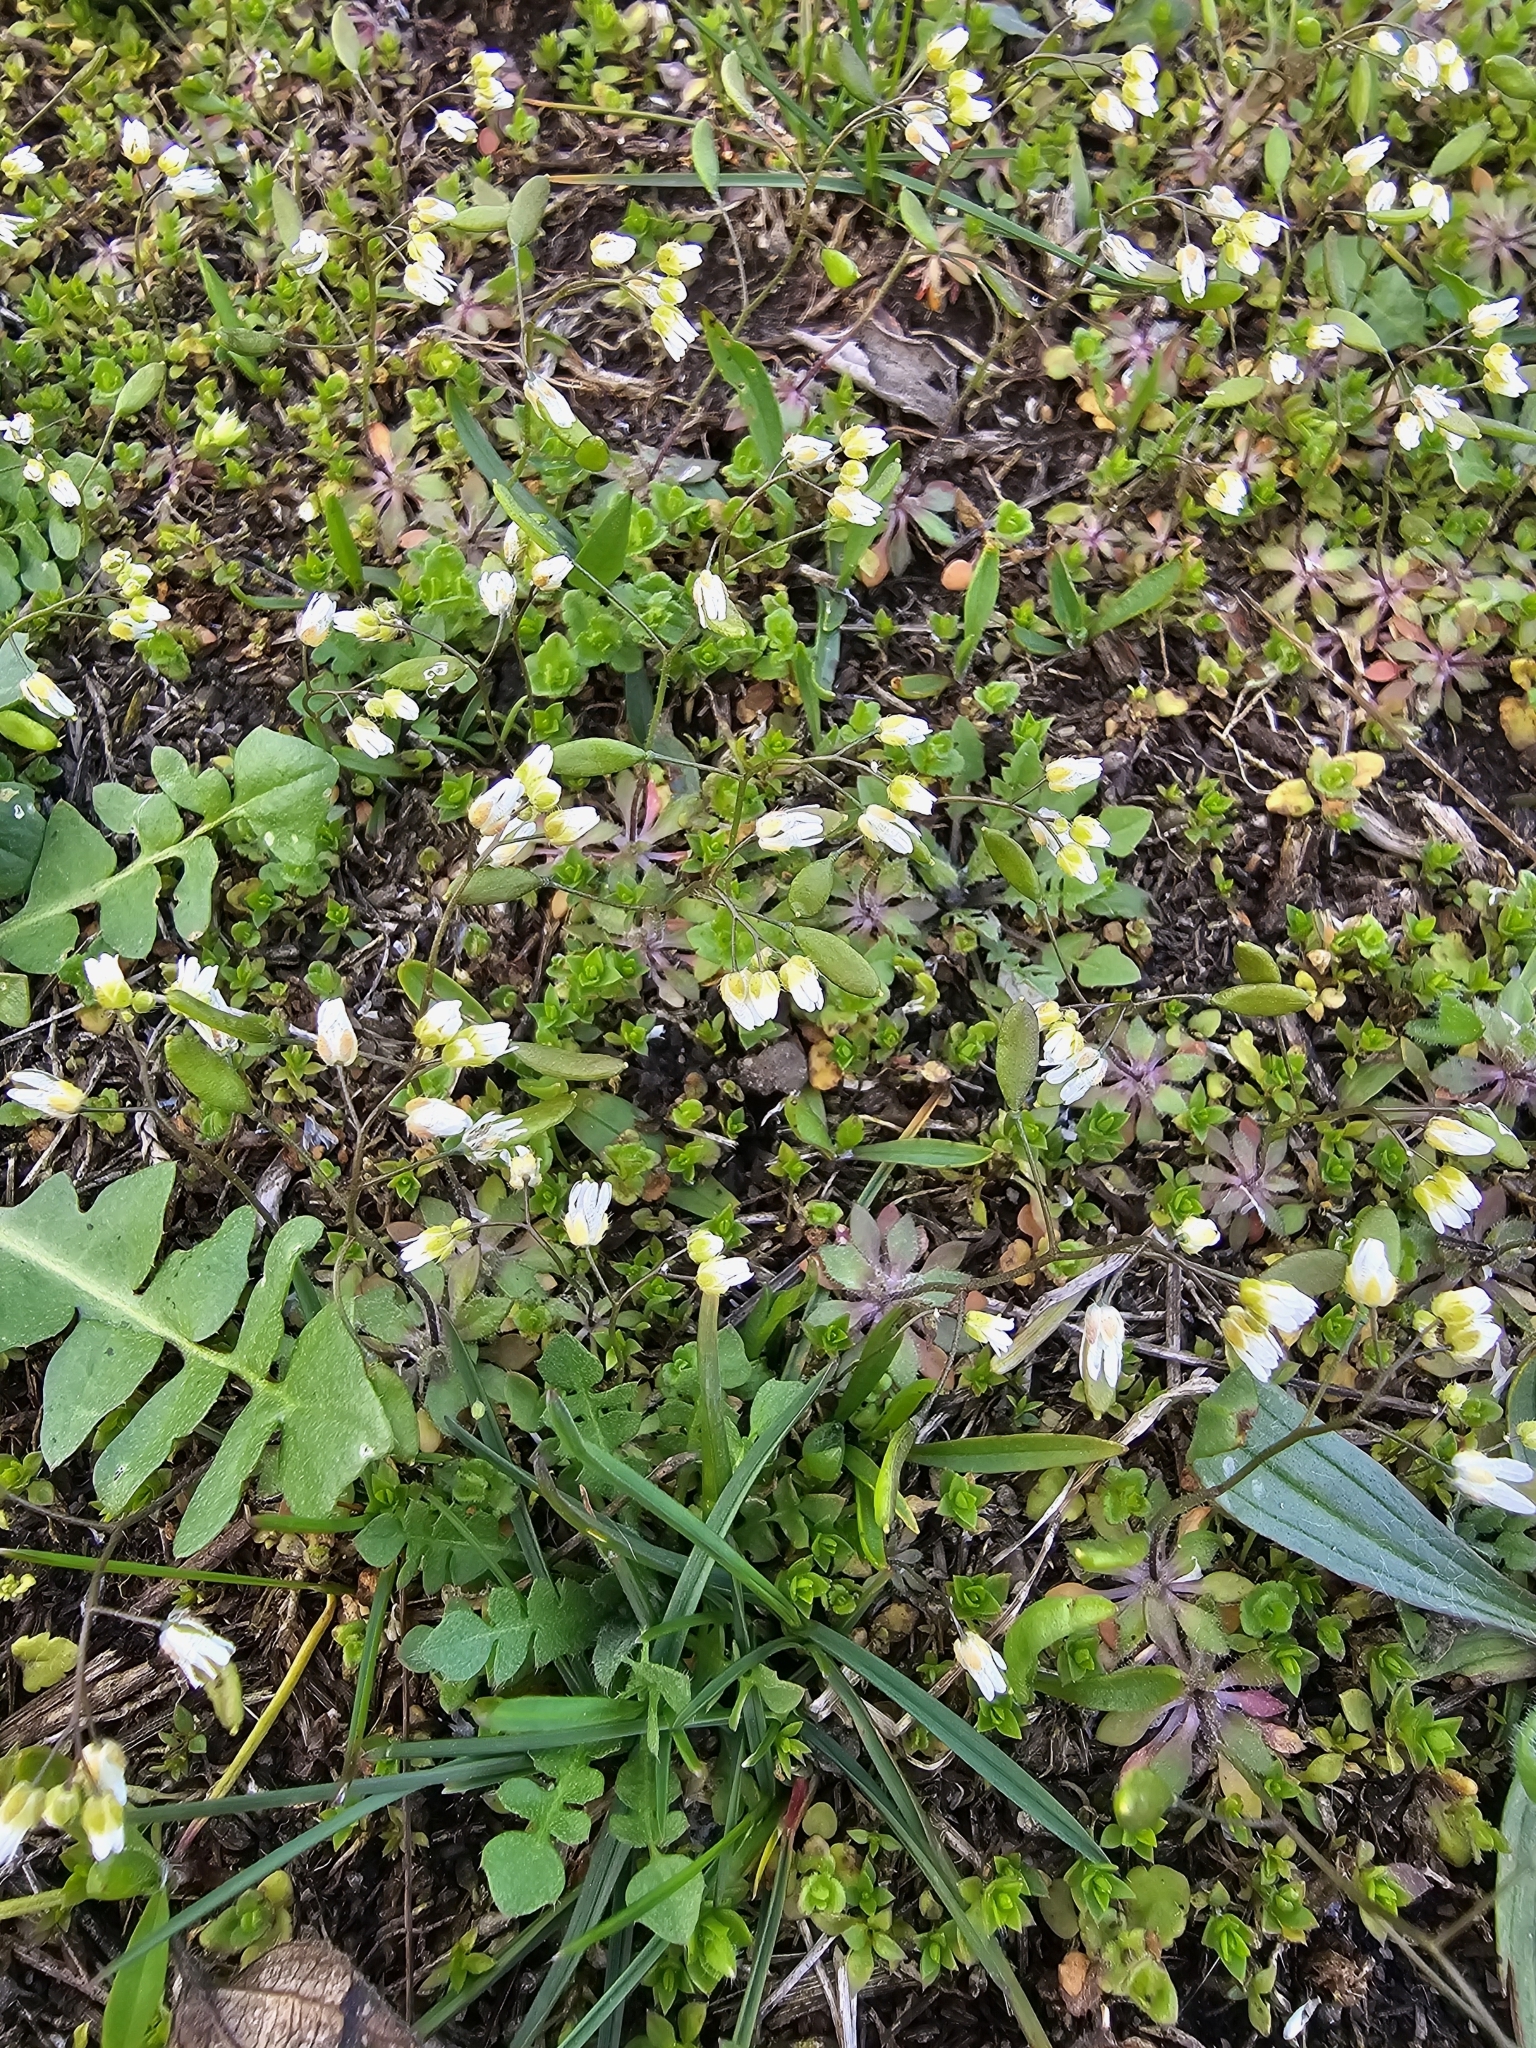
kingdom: Plantae
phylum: Tracheophyta
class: Magnoliopsida
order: Brassicales
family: Brassicaceae
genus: Draba
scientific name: Draba verna
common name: Spring draba
